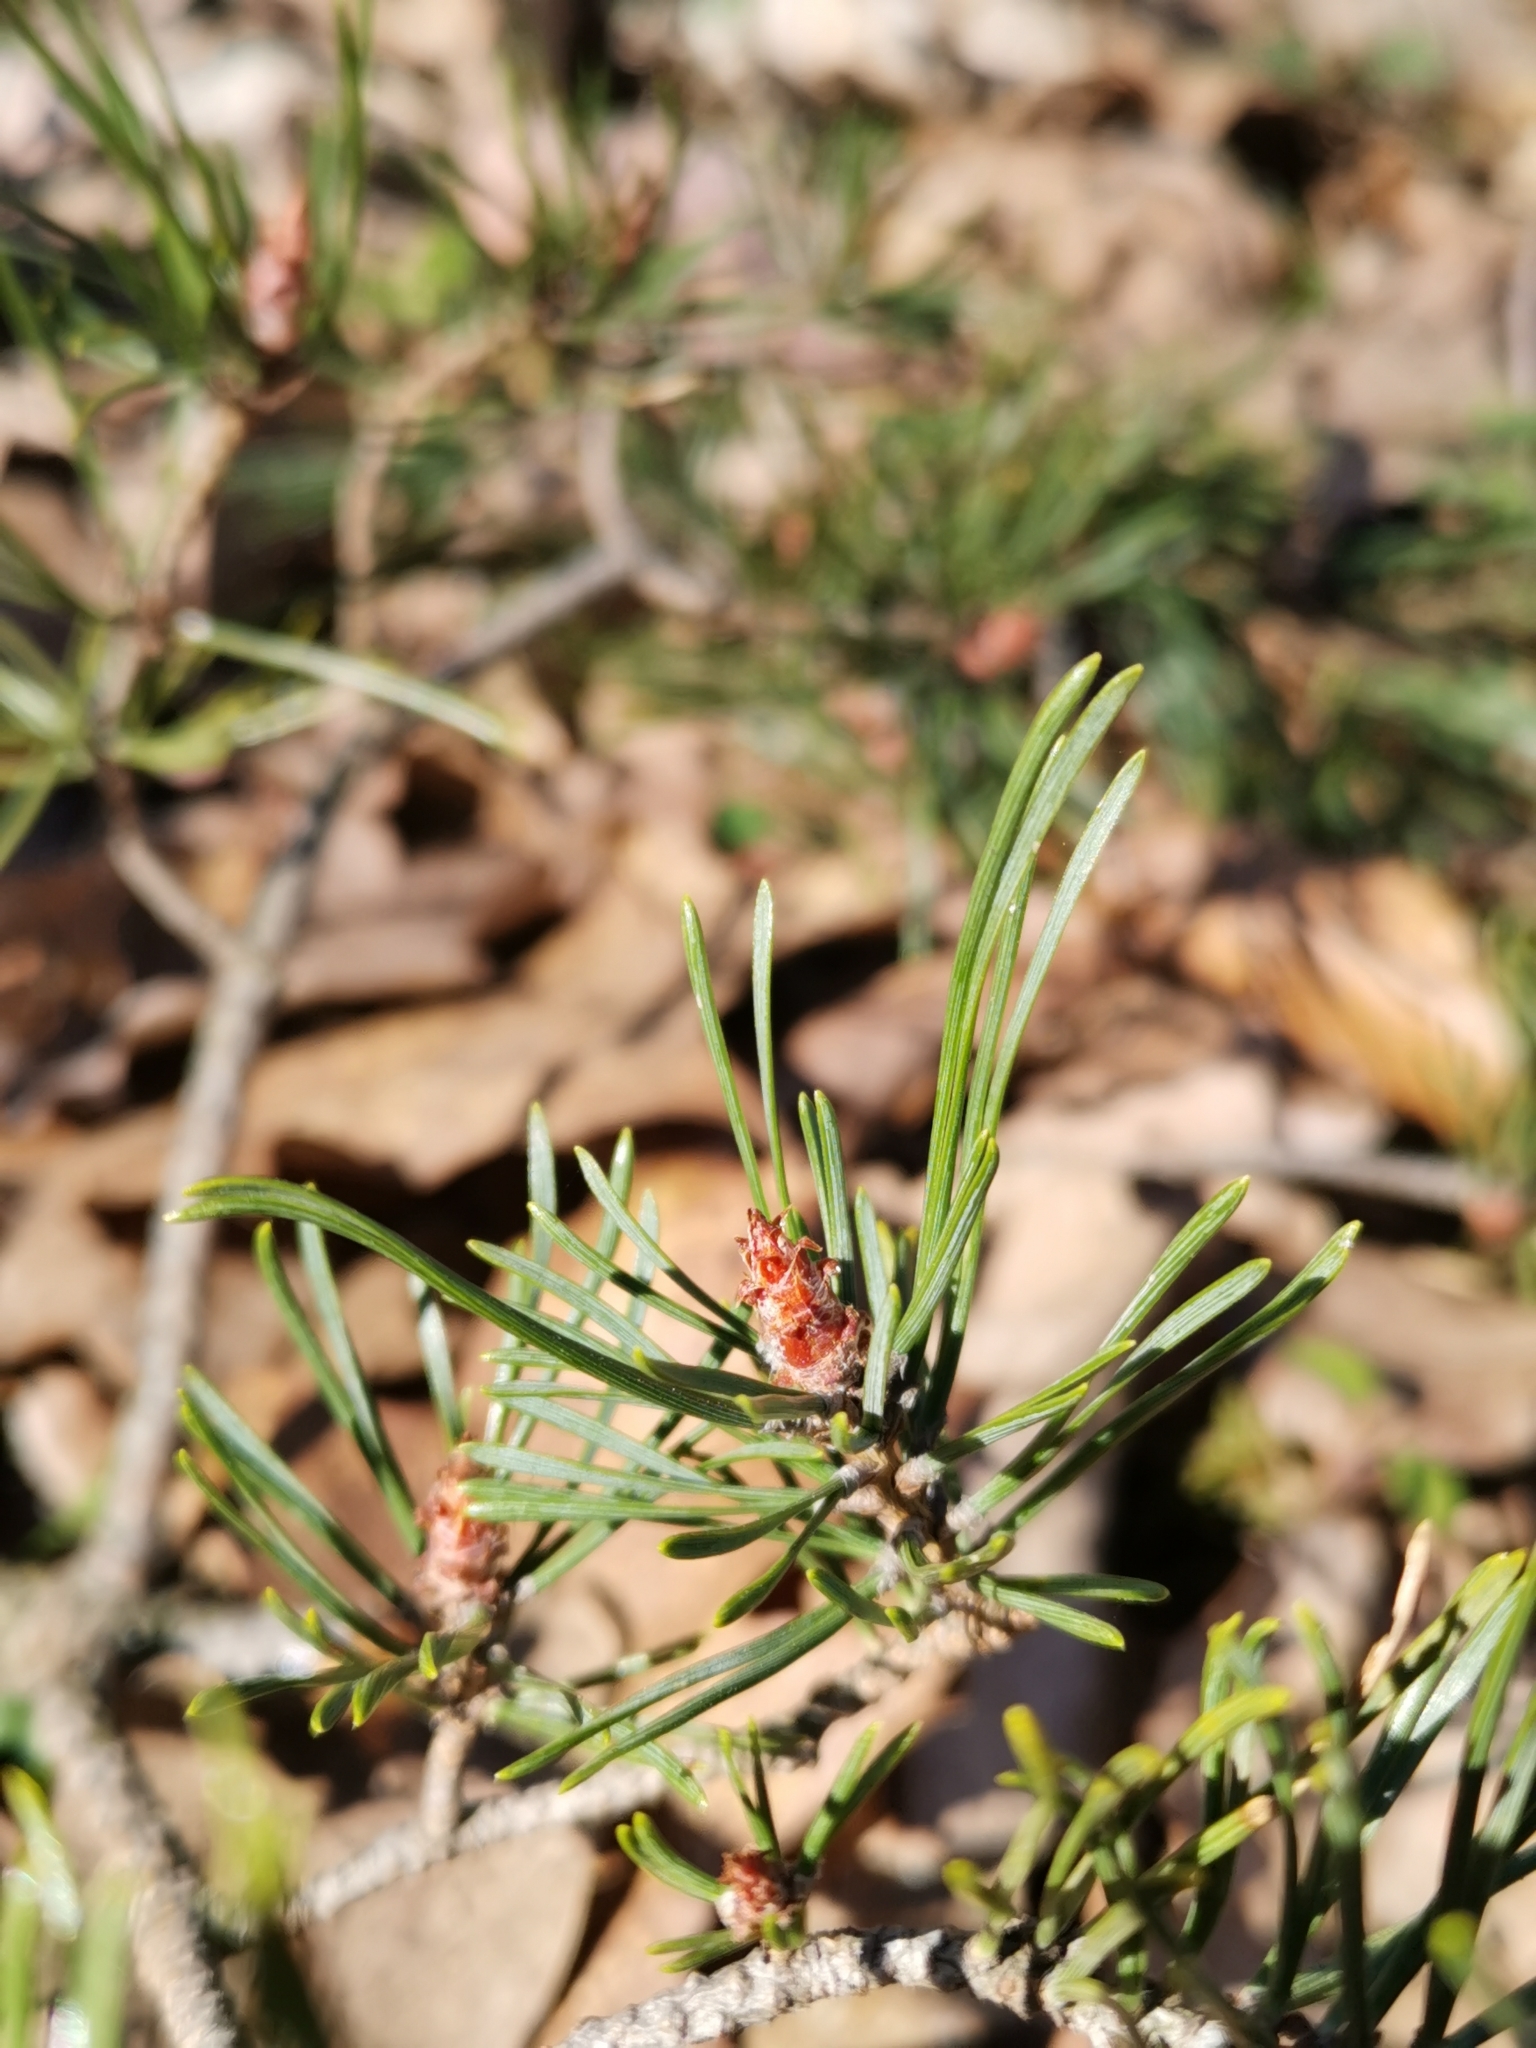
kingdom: Plantae
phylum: Tracheophyta
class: Pinopsida
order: Pinales
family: Pinaceae
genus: Pinus
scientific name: Pinus sylvestris
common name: Scots pine
